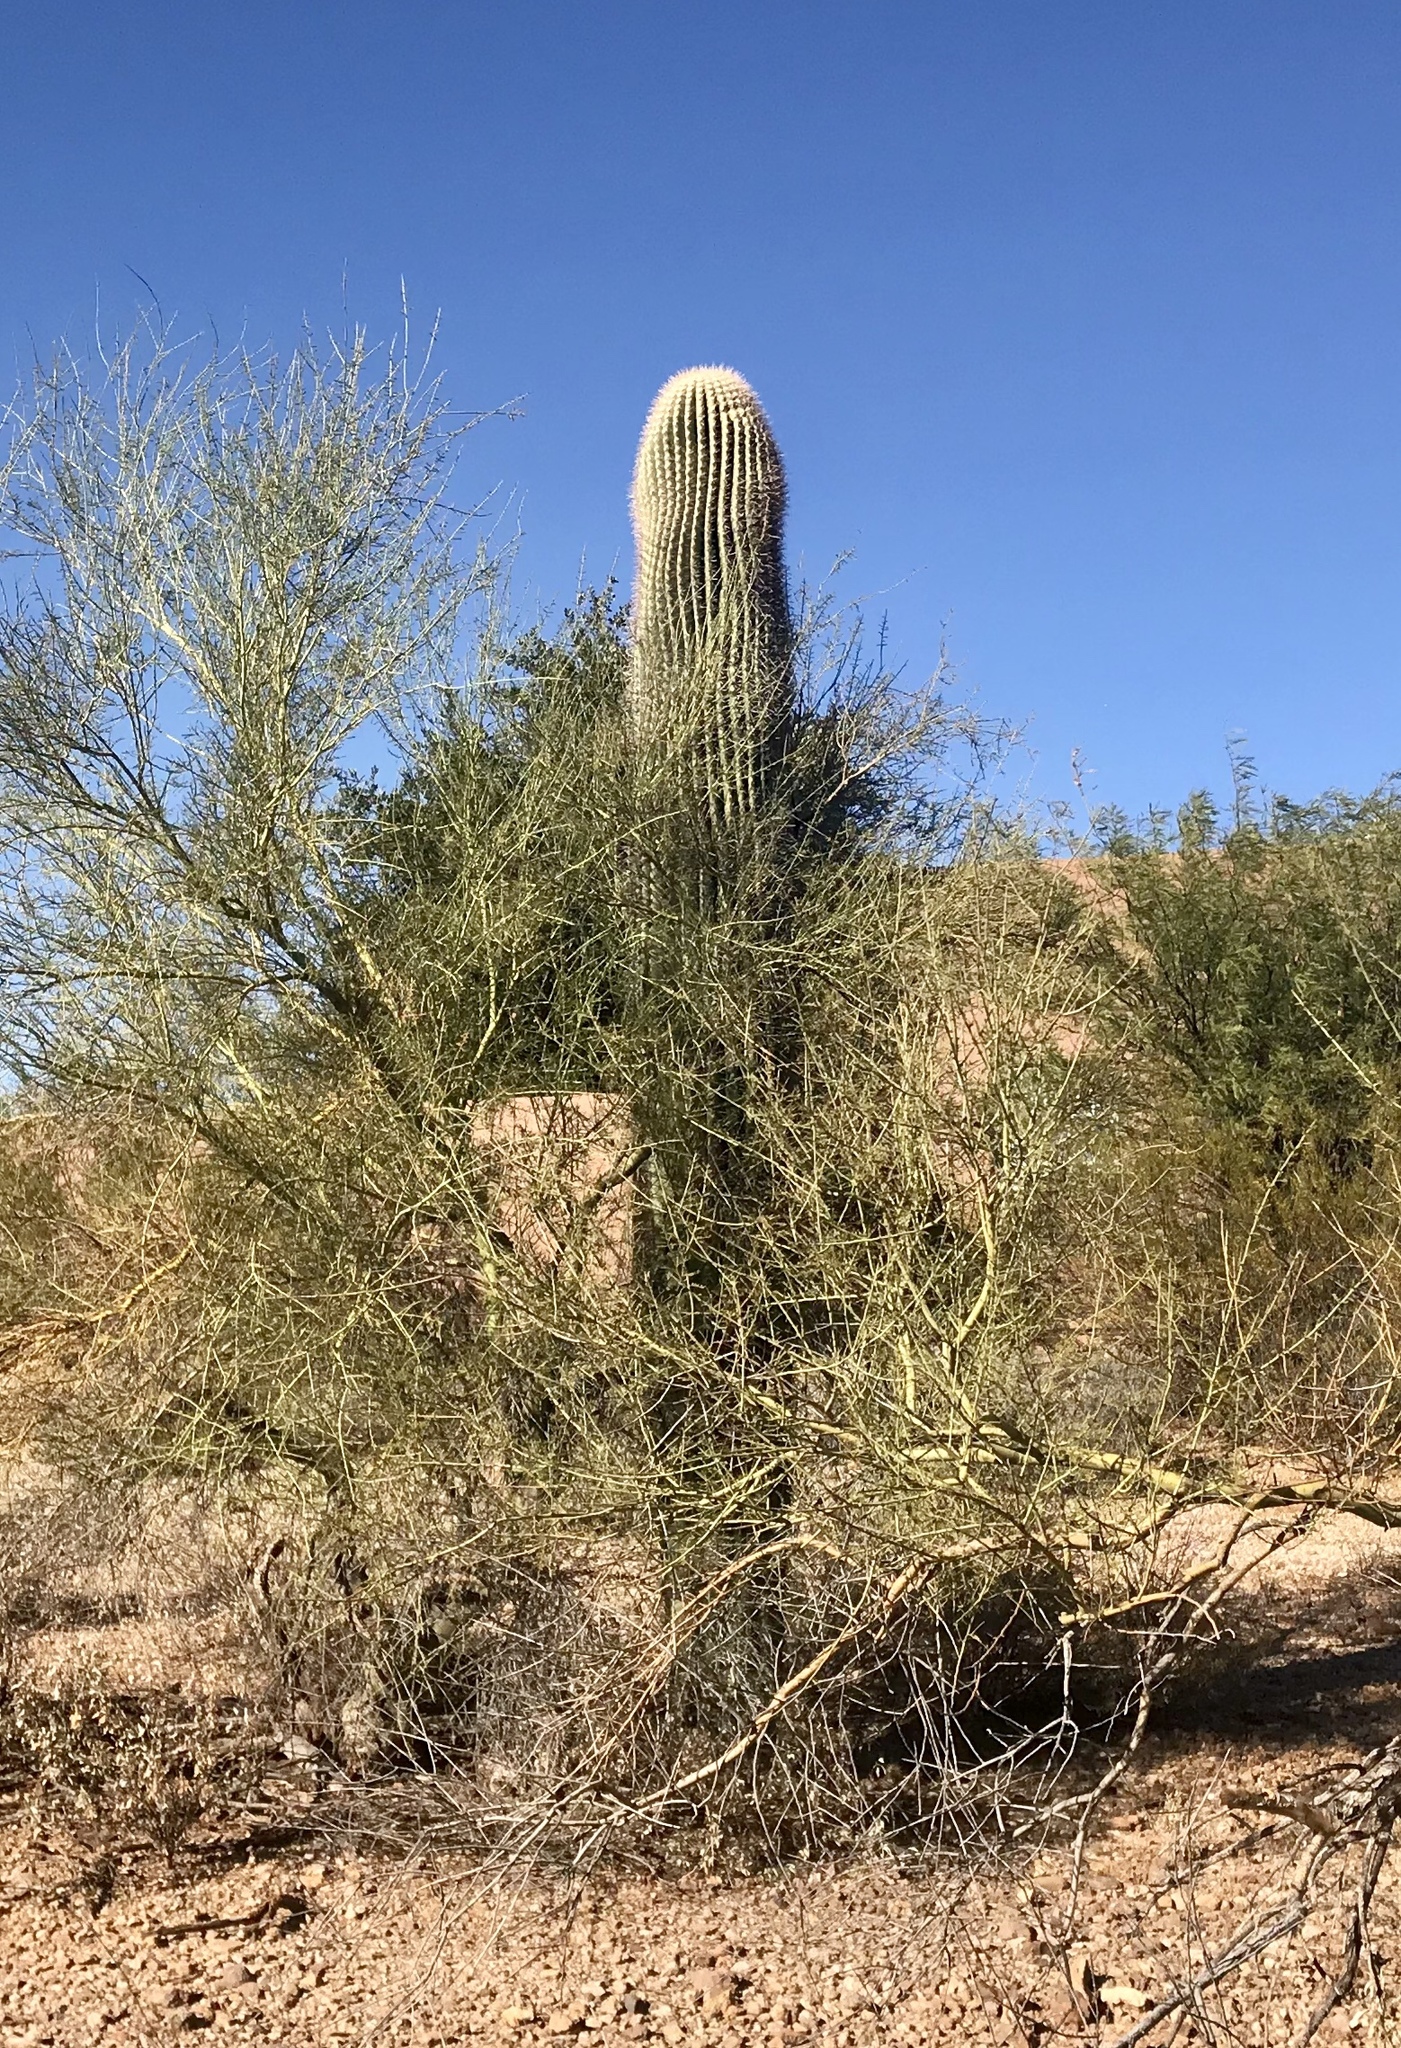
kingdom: Plantae
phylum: Tracheophyta
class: Magnoliopsida
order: Caryophyllales
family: Cactaceae
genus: Carnegiea
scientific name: Carnegiea gigantea
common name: Saguaro
